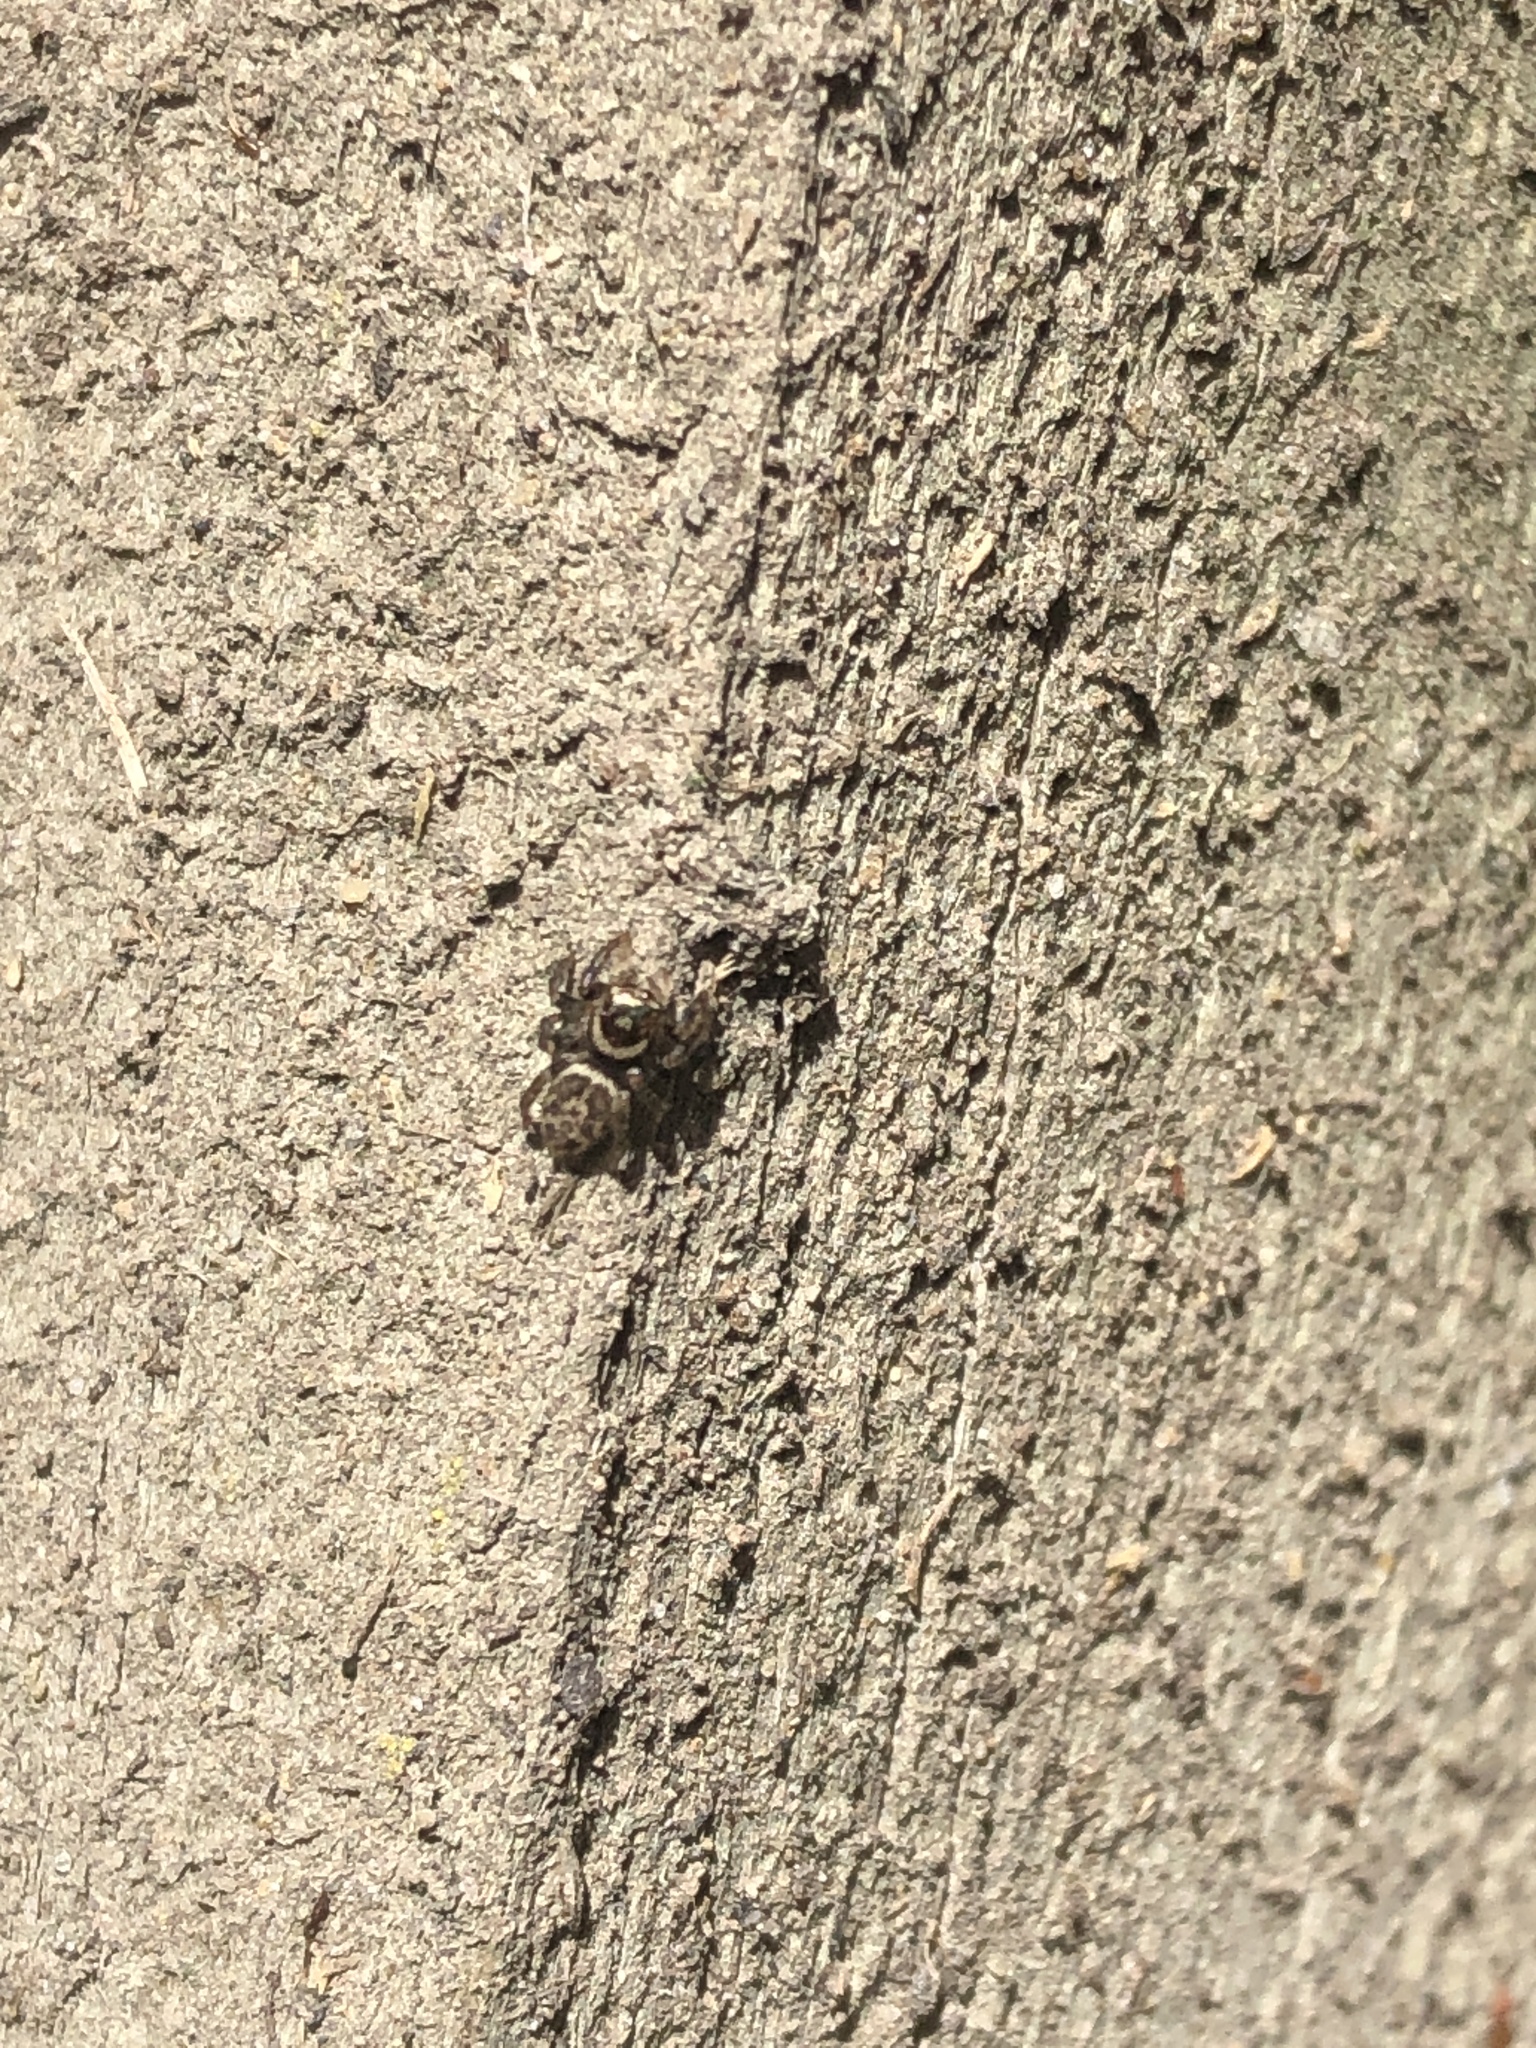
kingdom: Animalia
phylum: Arthropoda
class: Arachnida
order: Araneae
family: Salticidae
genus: Maratus
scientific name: Maratus griseus
